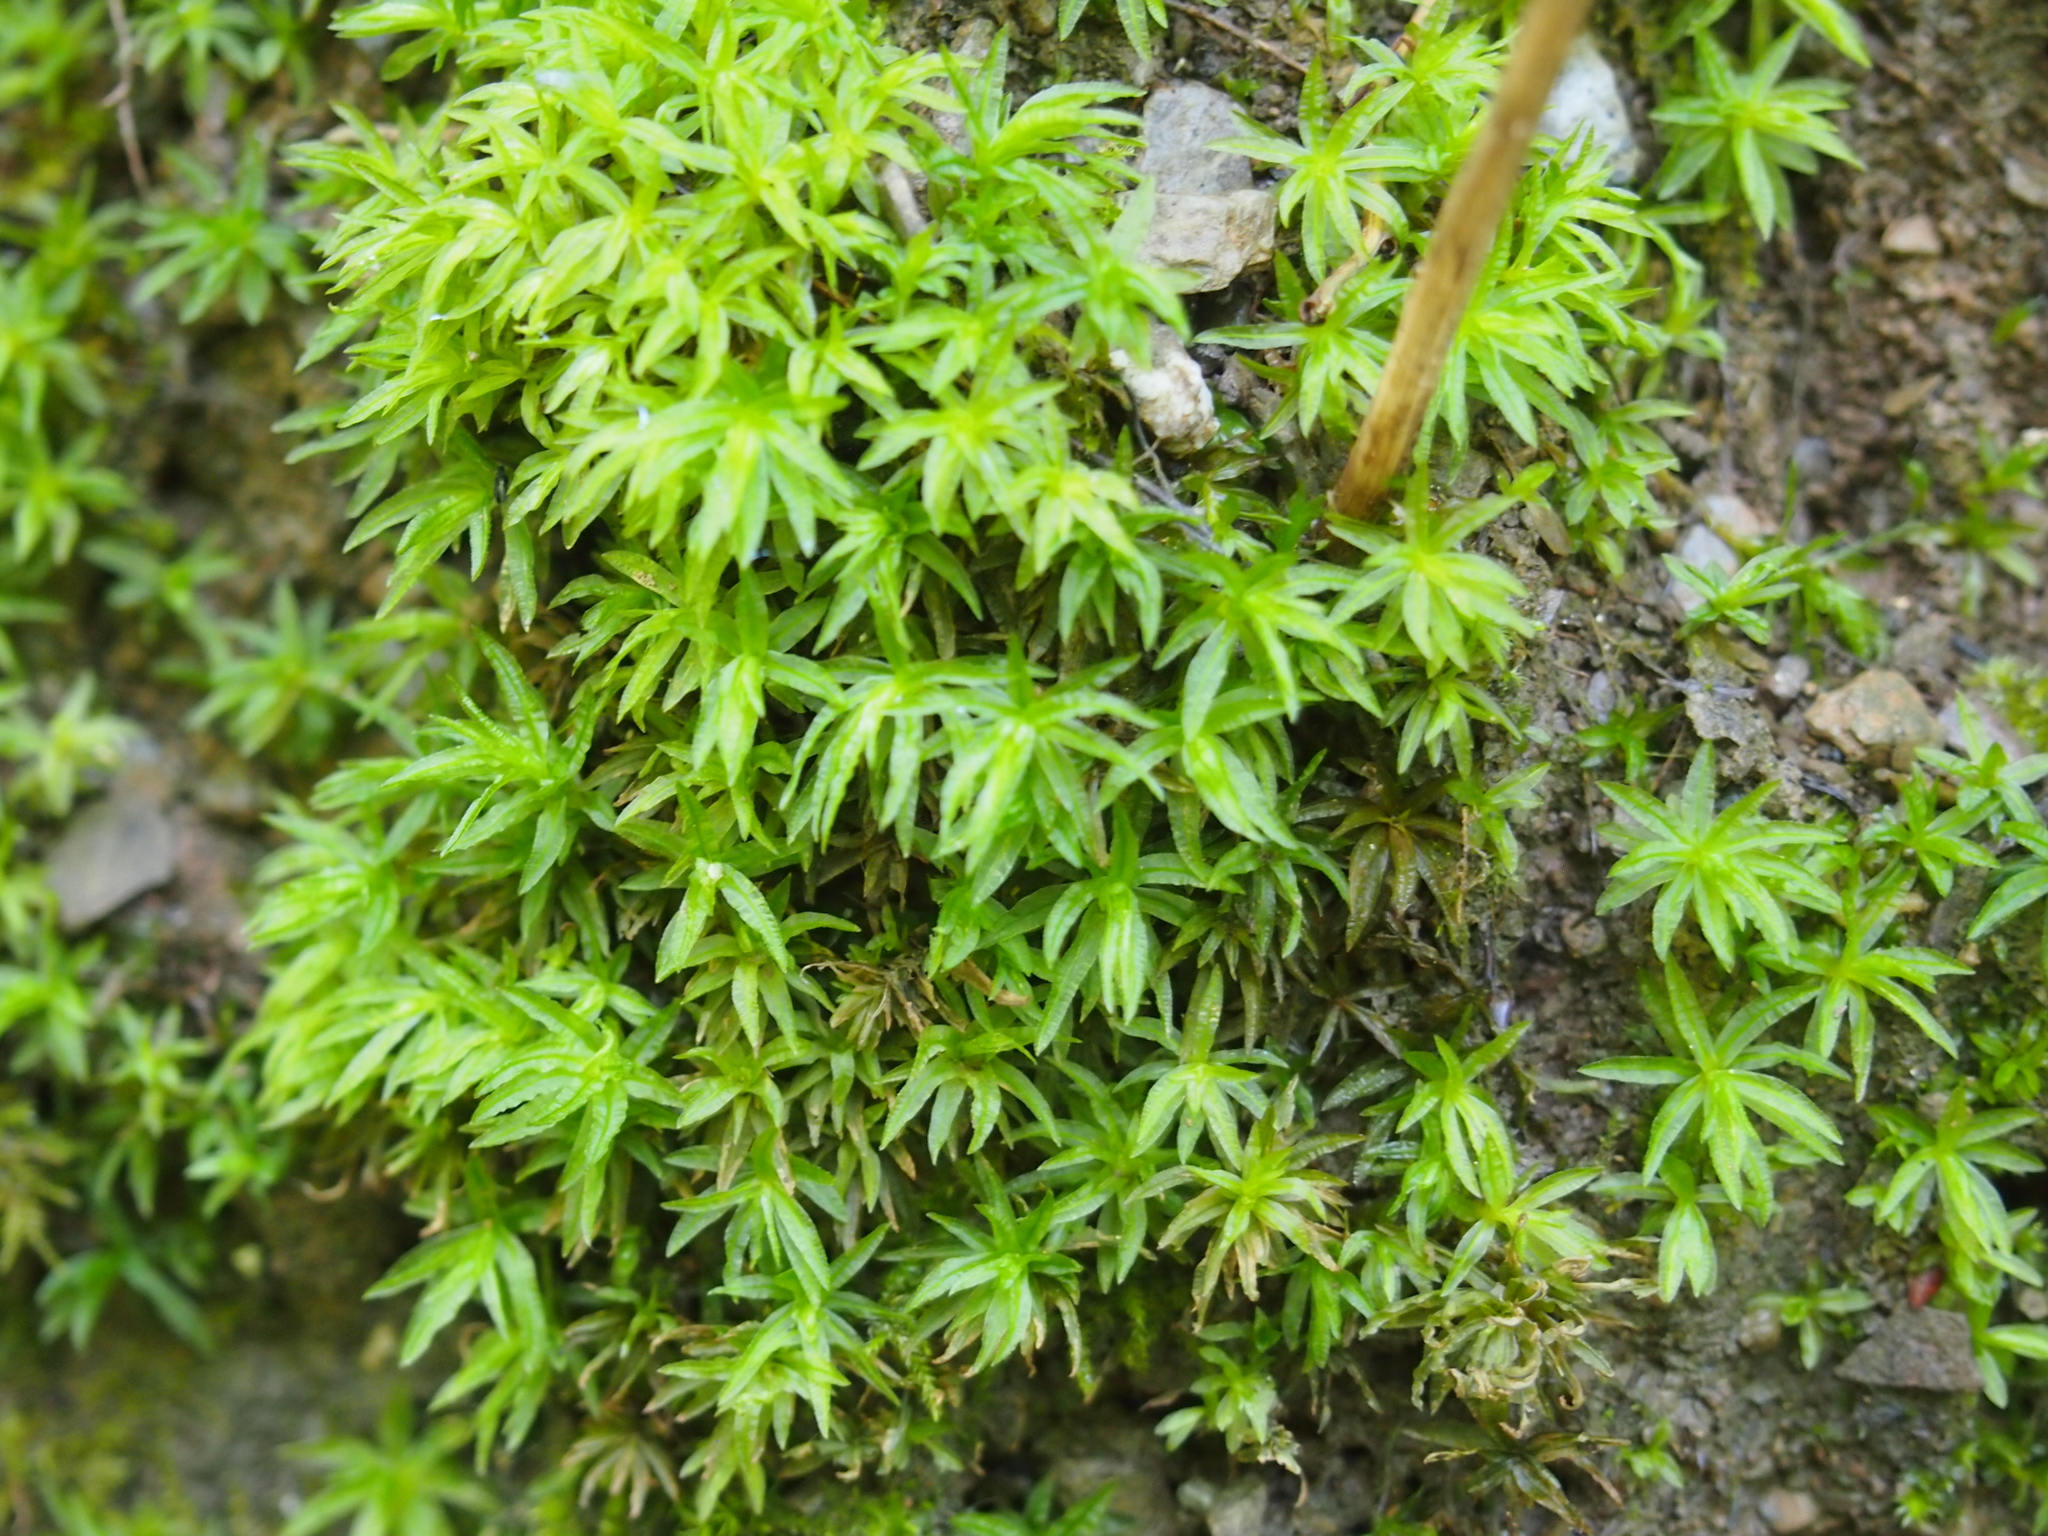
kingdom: Plantae
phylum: Bryophyta
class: Polytrichopsida
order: Polytrichales
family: Polytrichaceae
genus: Atrichum
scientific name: Atrichum undulatum
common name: Common smoothcap
